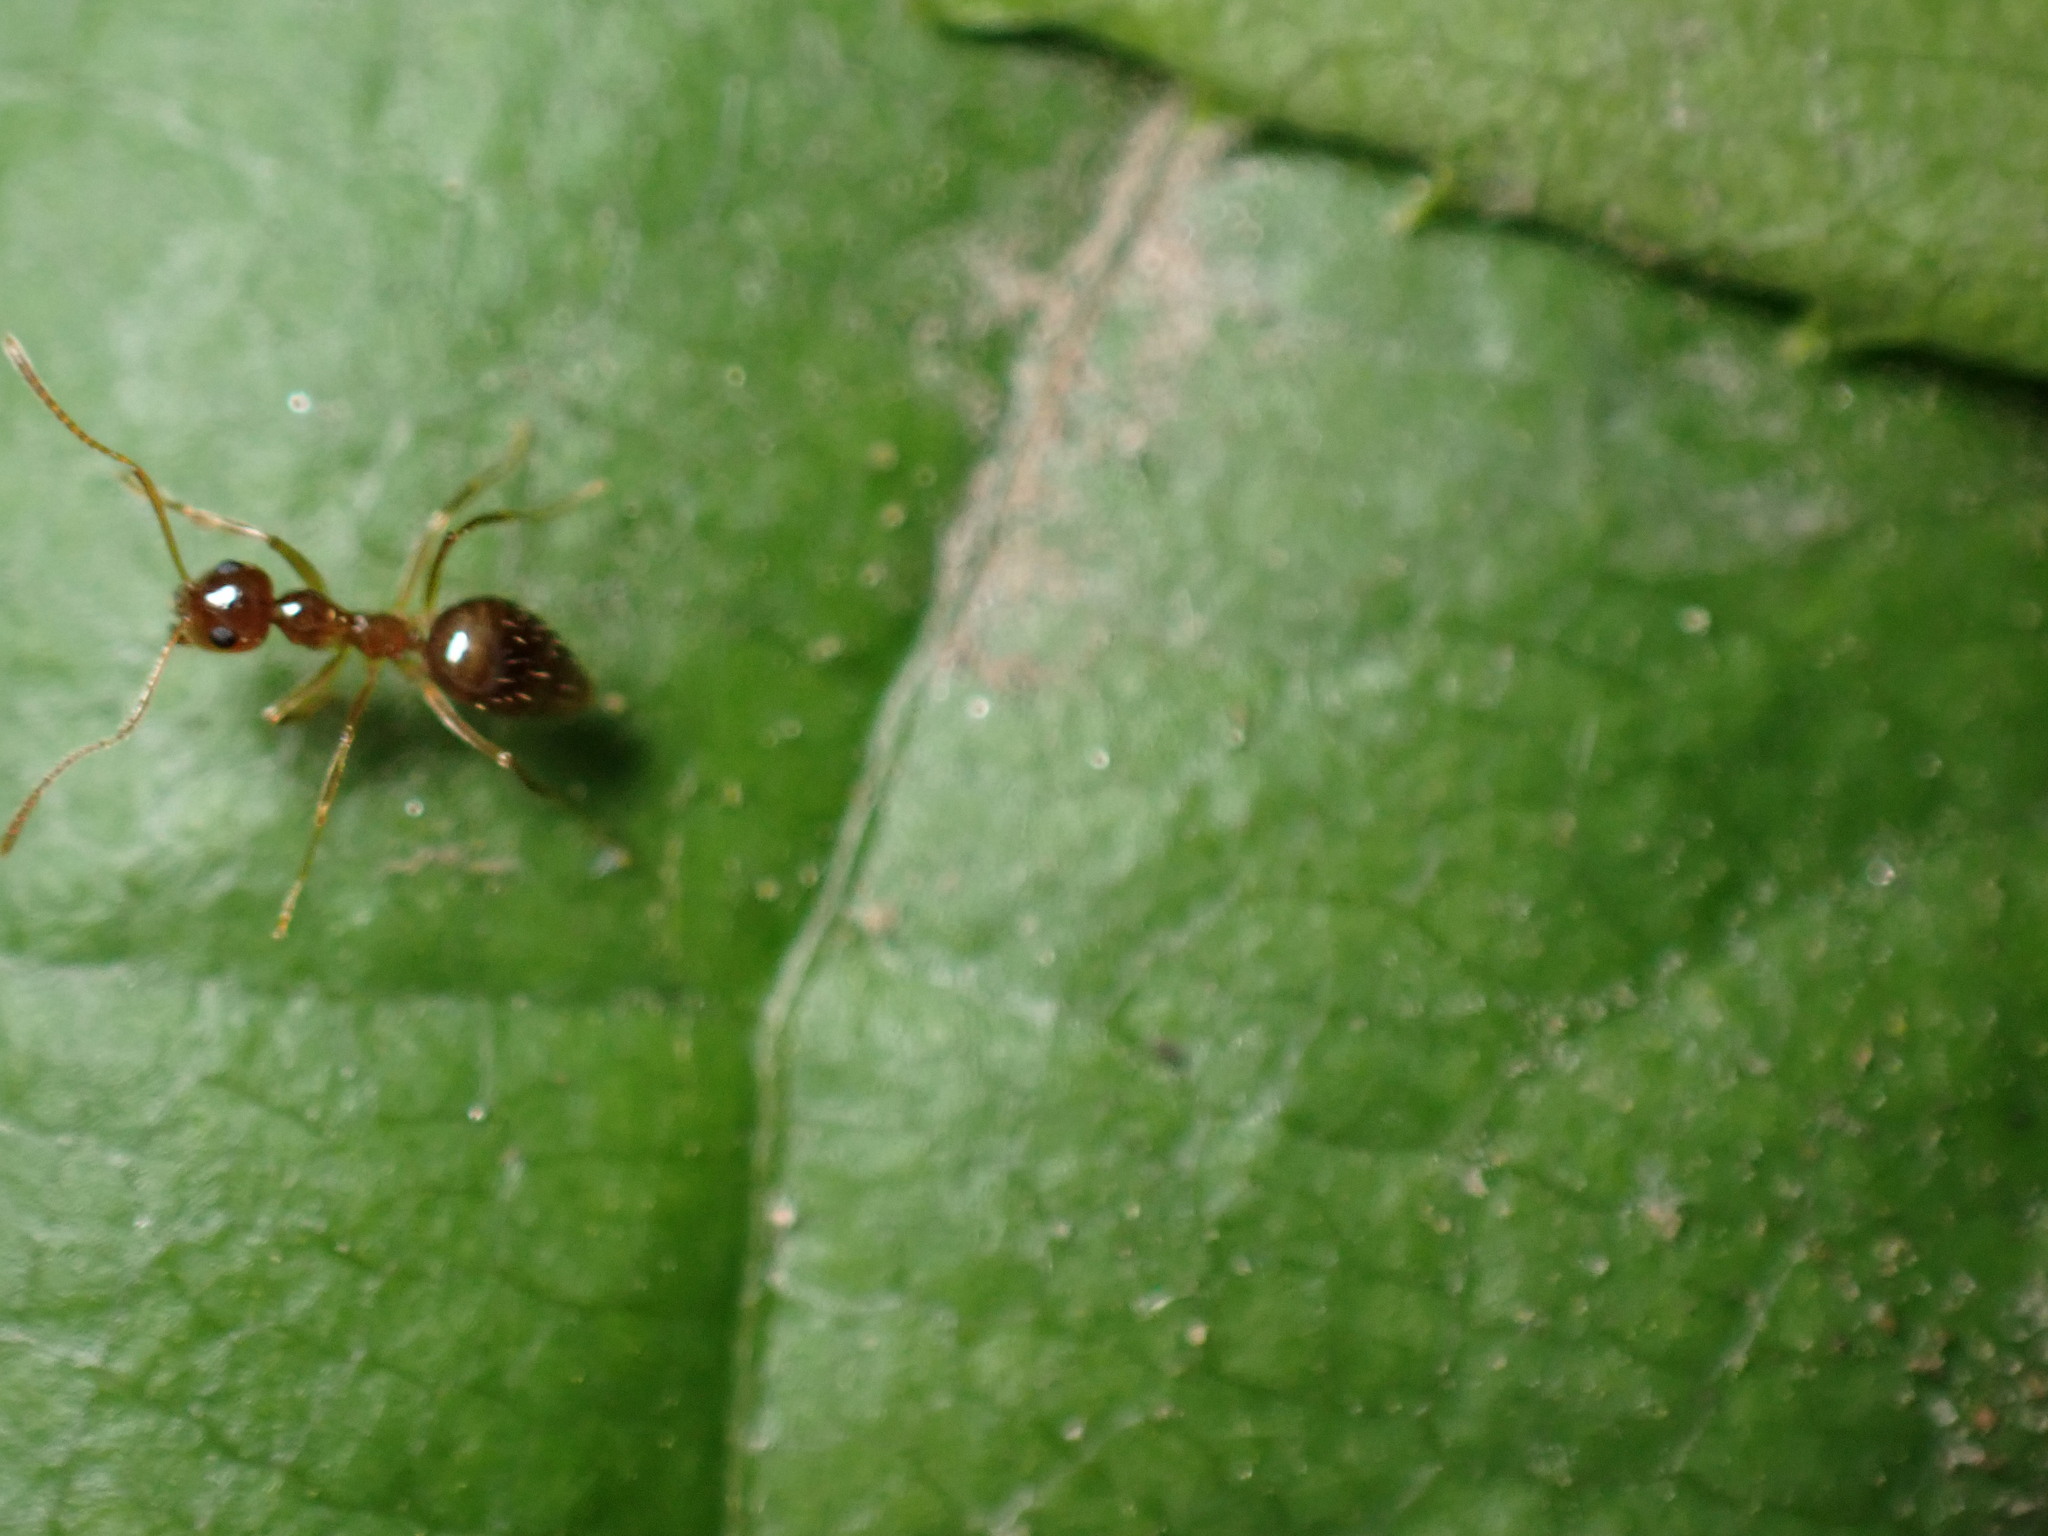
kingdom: Animalia
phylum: Arthropoda
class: Insecta
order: Hymenoptera
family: Formicidae
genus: Prenolepis
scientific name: Prenolepis imparis
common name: Small honey ant
